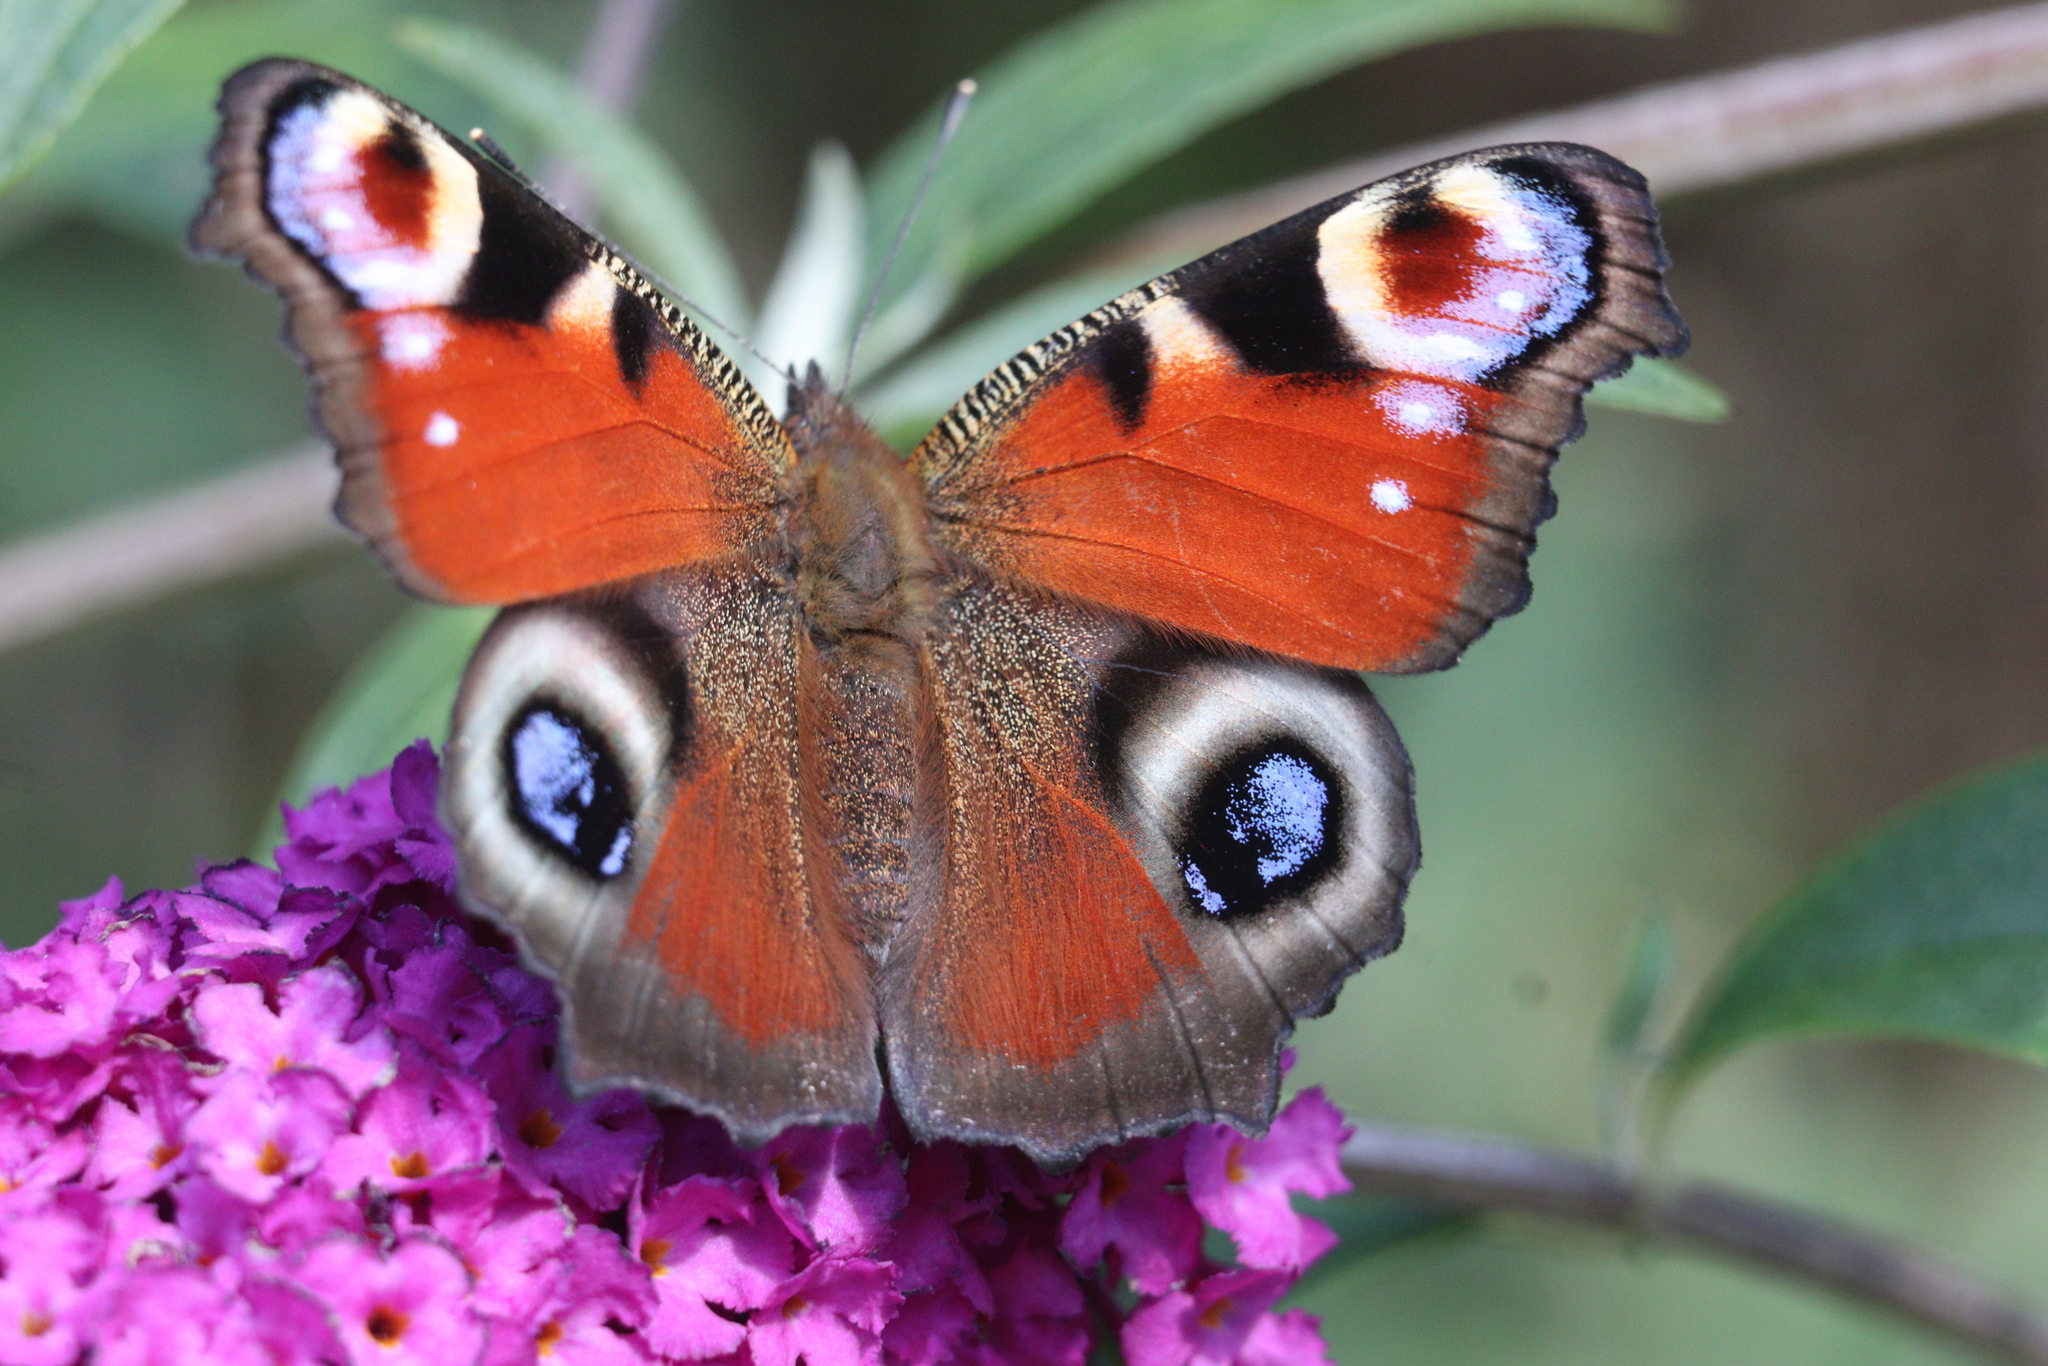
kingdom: Animalia
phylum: Arthropoda
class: Insecta
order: Lepidoptera
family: Nymphalidae
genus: Aglais
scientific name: Aglais io
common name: Peacock
